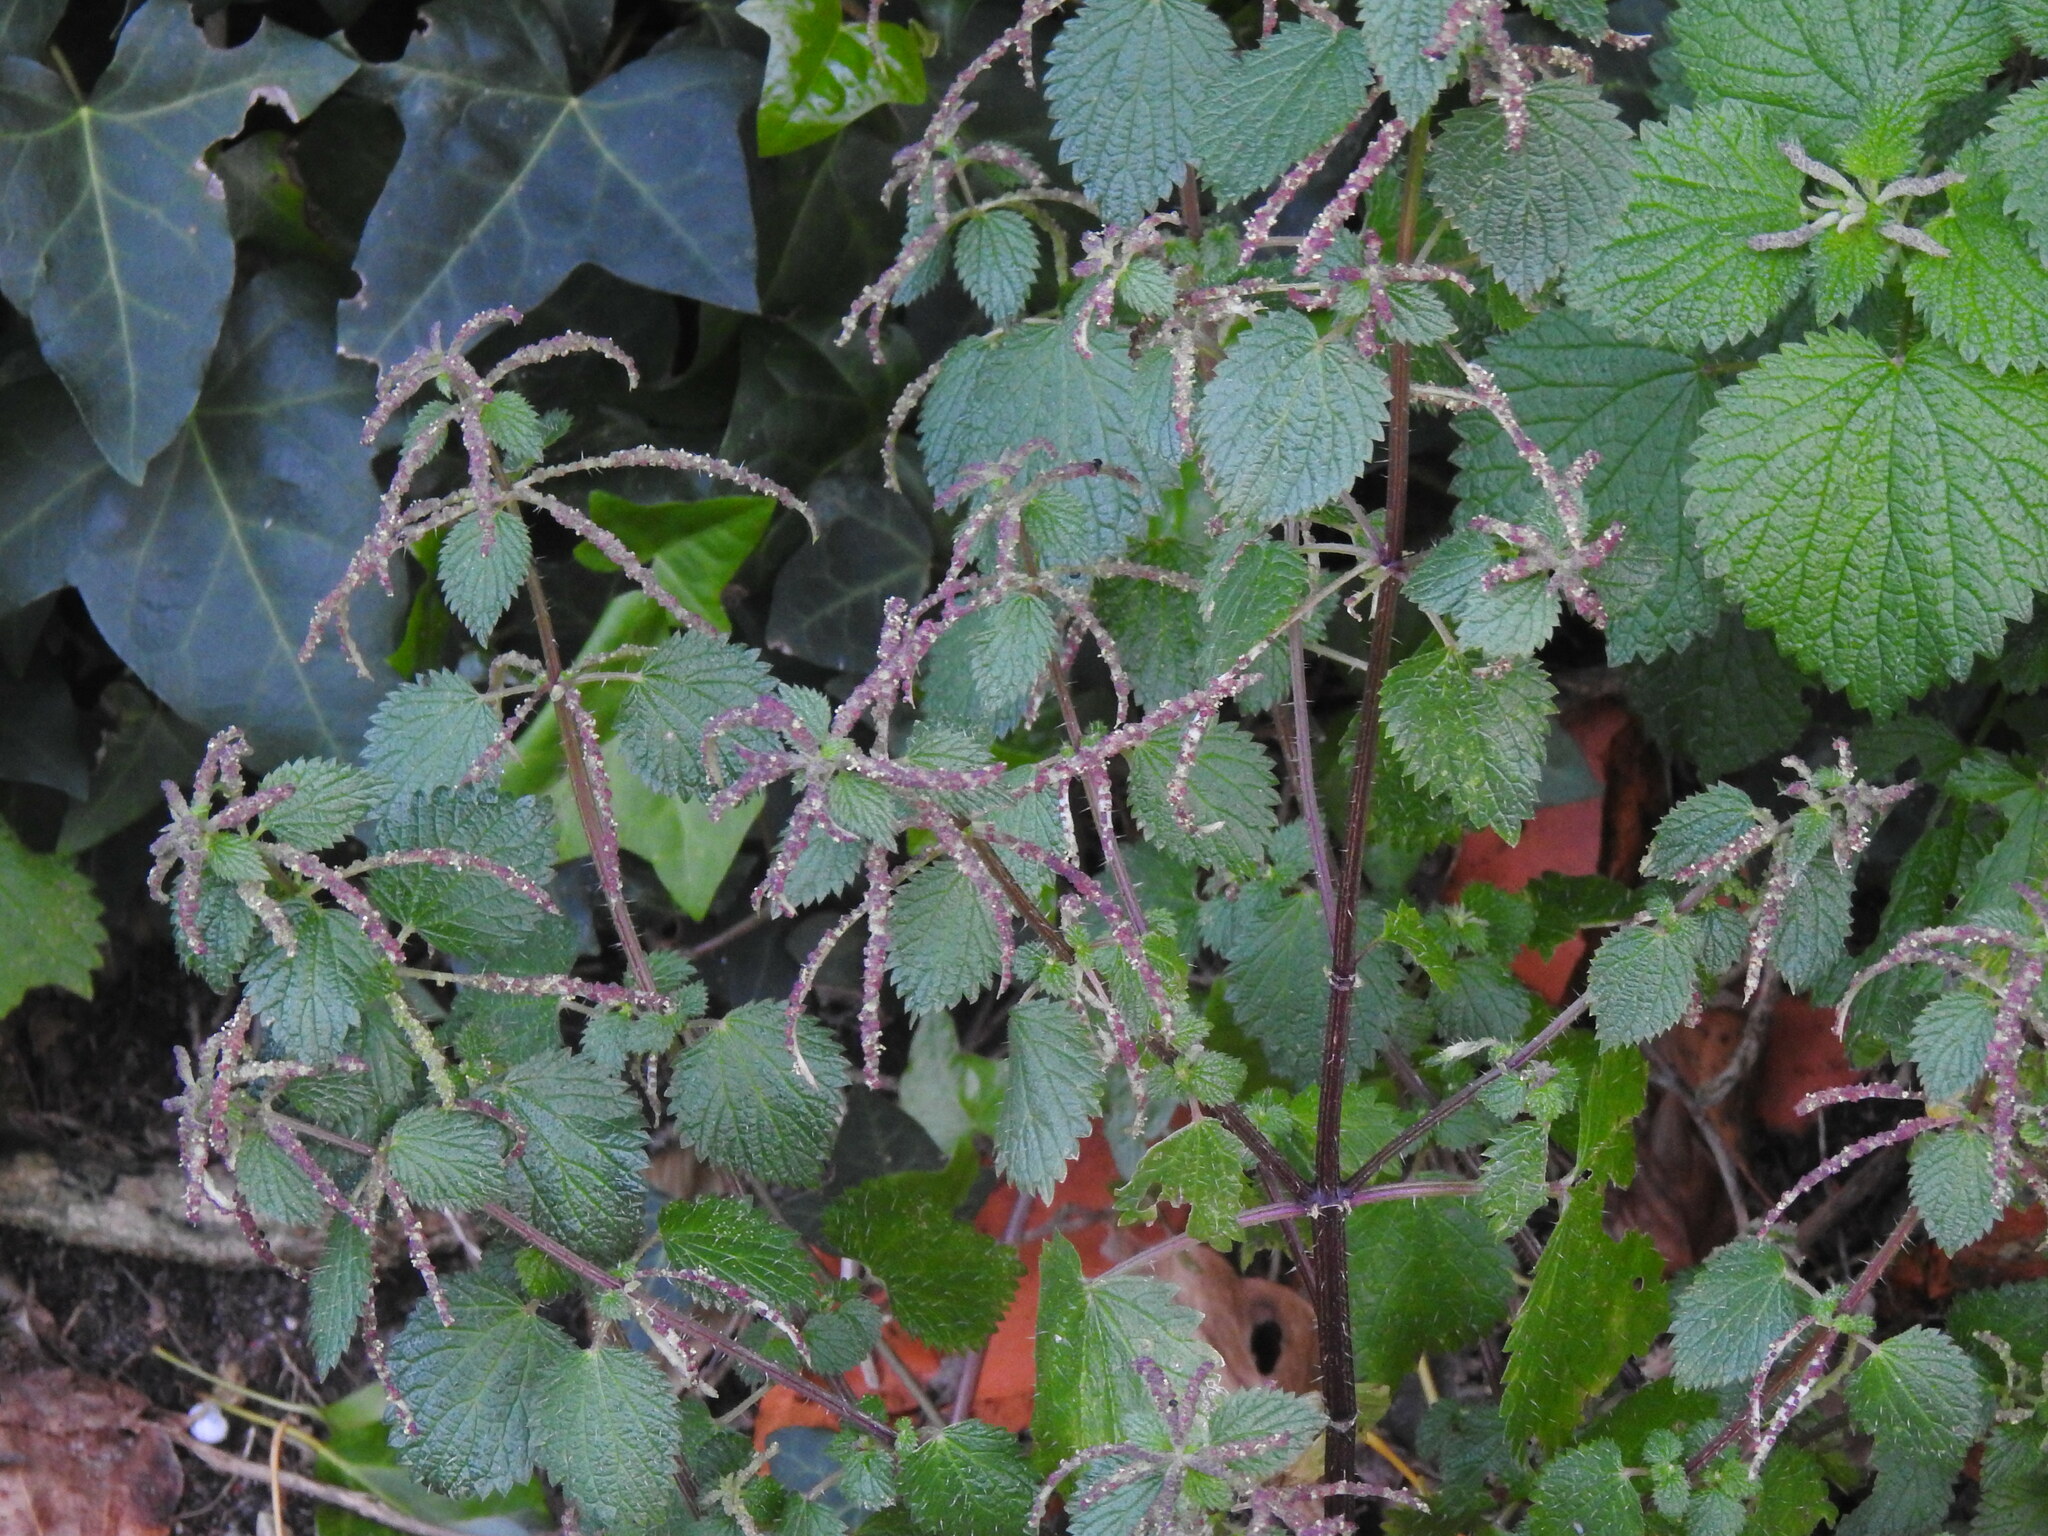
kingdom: Plantae
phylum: Tracheophyta
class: Magnoliopsida
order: Rosales
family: Urticaceae
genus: Urtica
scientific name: Urtica membranacea
